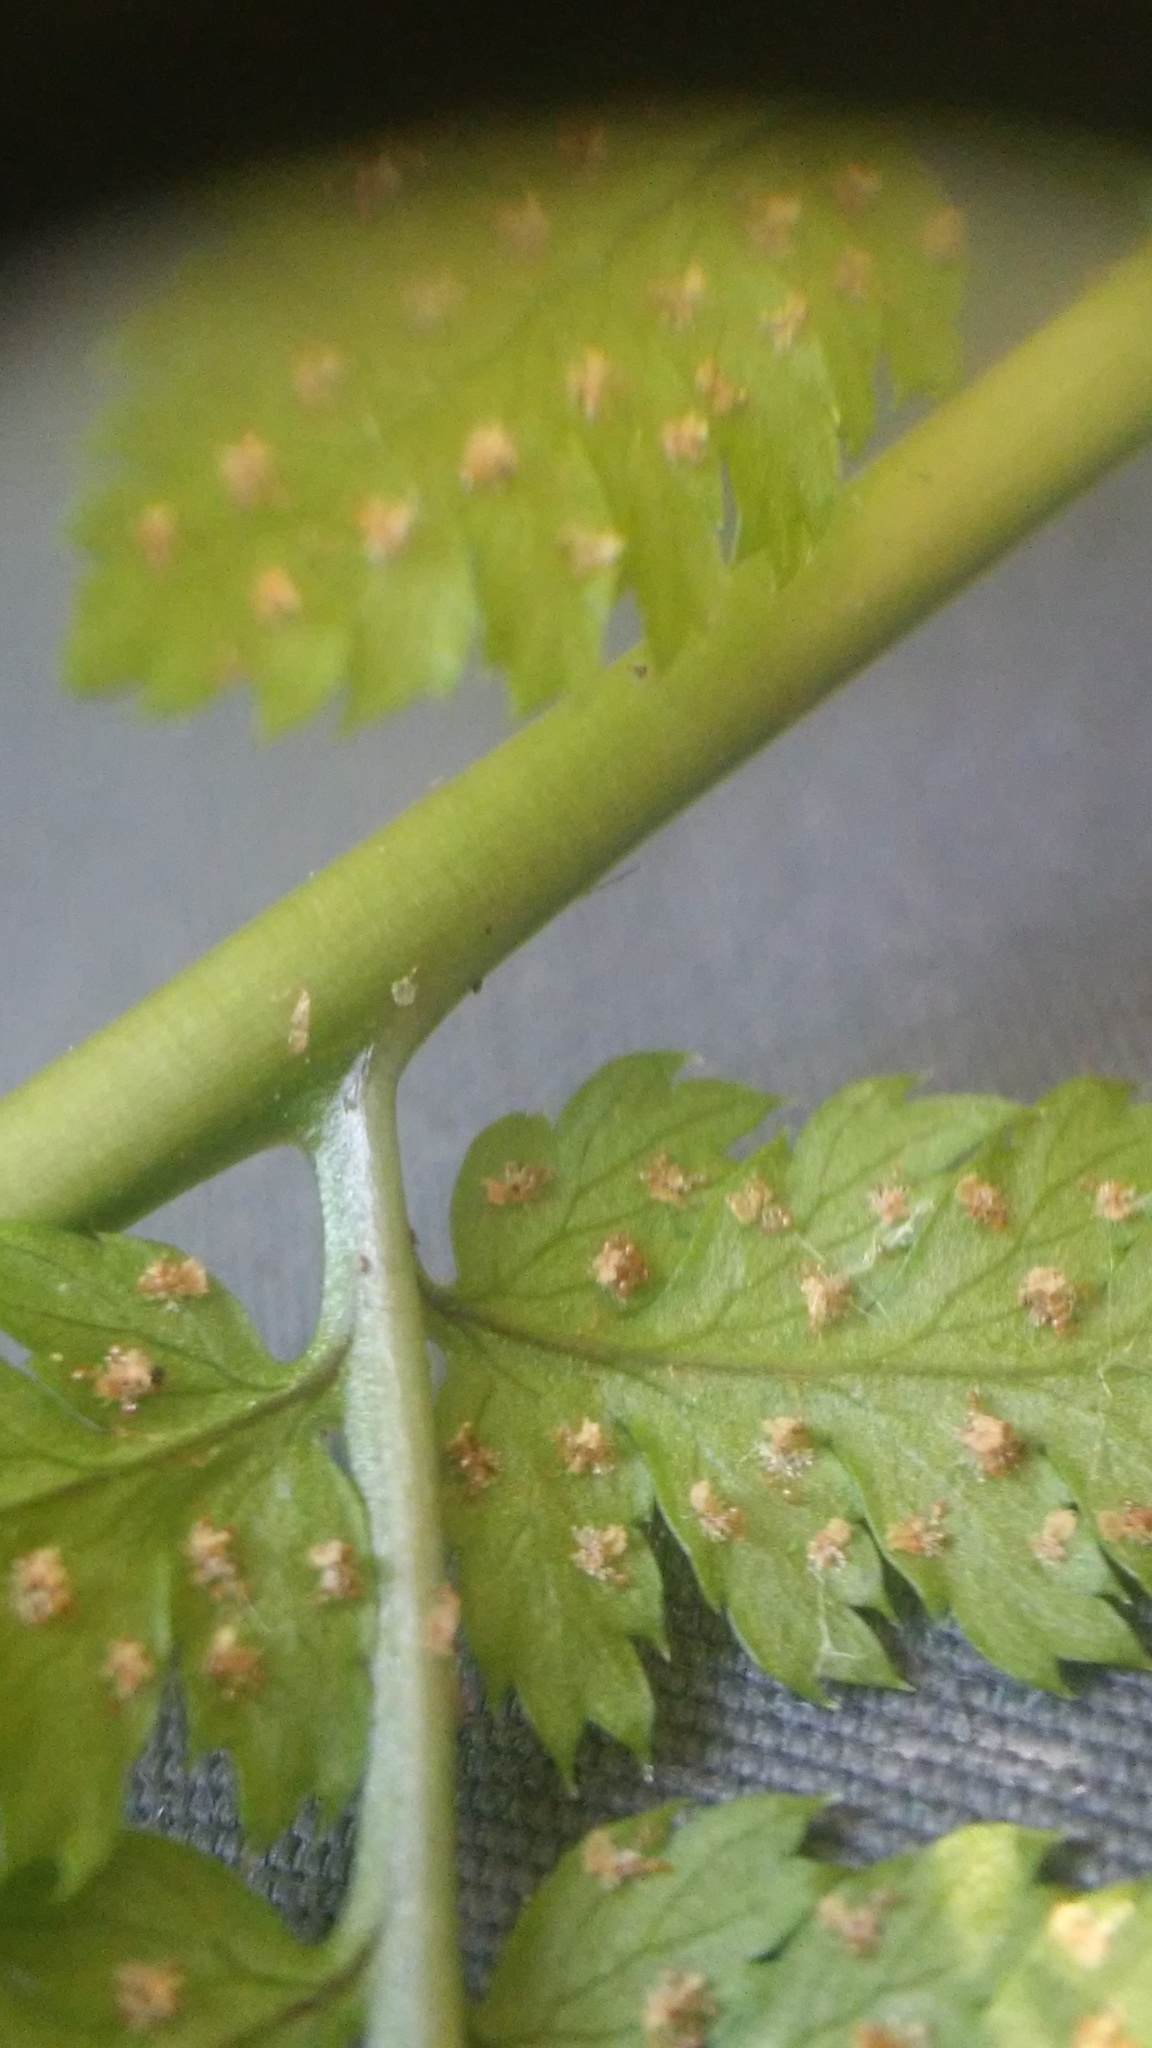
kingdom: Plantae
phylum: Tracheophyta
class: Polypodiopsida
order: Polypodiales
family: Dryopteridaceae
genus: Dryopteris
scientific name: Dryopteris carthusiana
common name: Narrow buckler-fern
